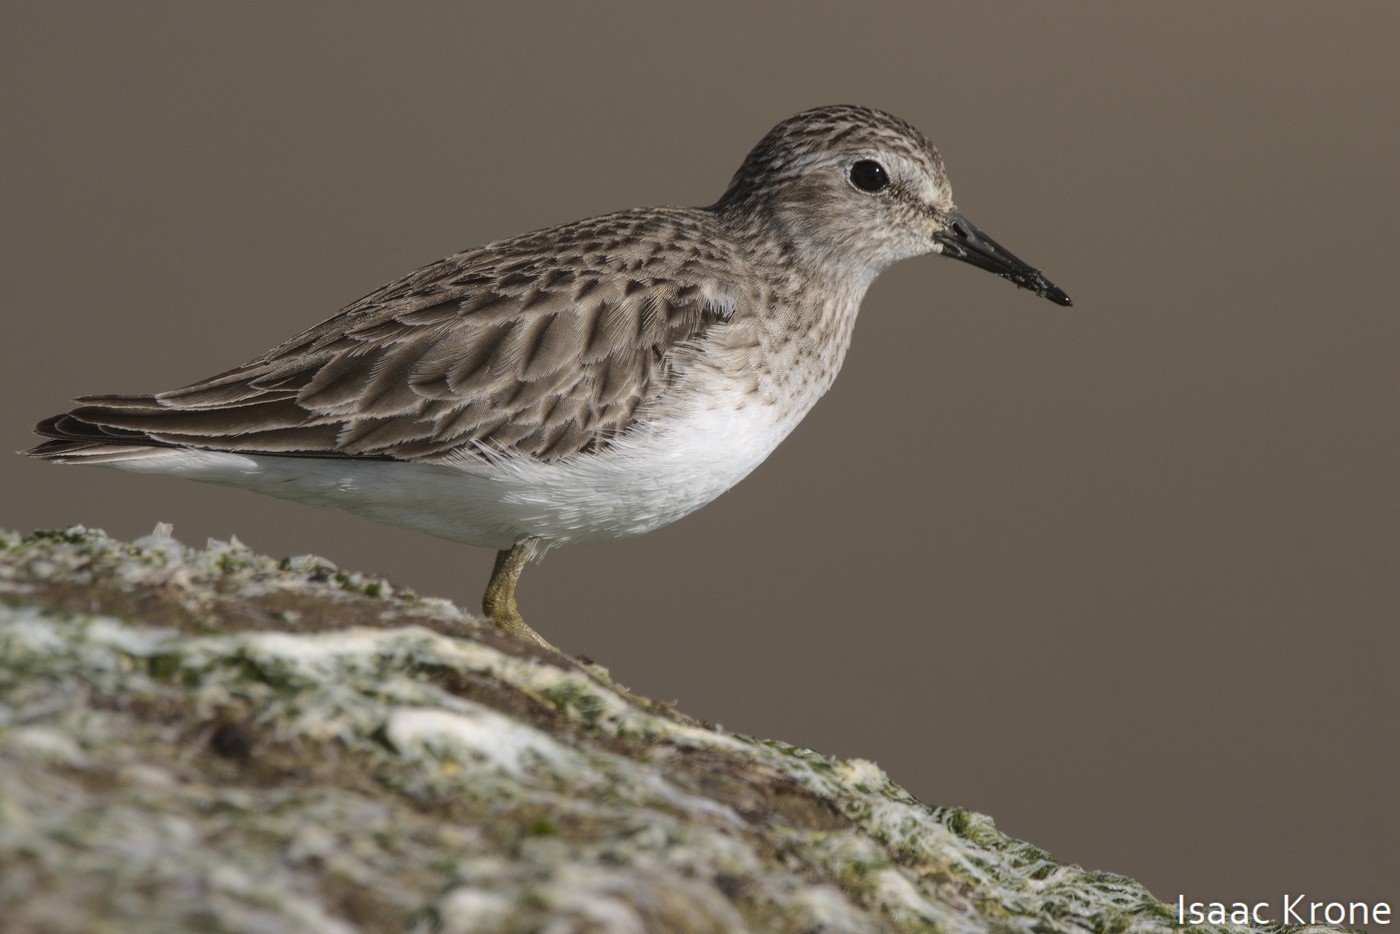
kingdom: Animalia
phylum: Chordata
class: Aves
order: Charadriiformes
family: Scolopacidae
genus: Calidris
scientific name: Calidris minutilla
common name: Least sandpiper
